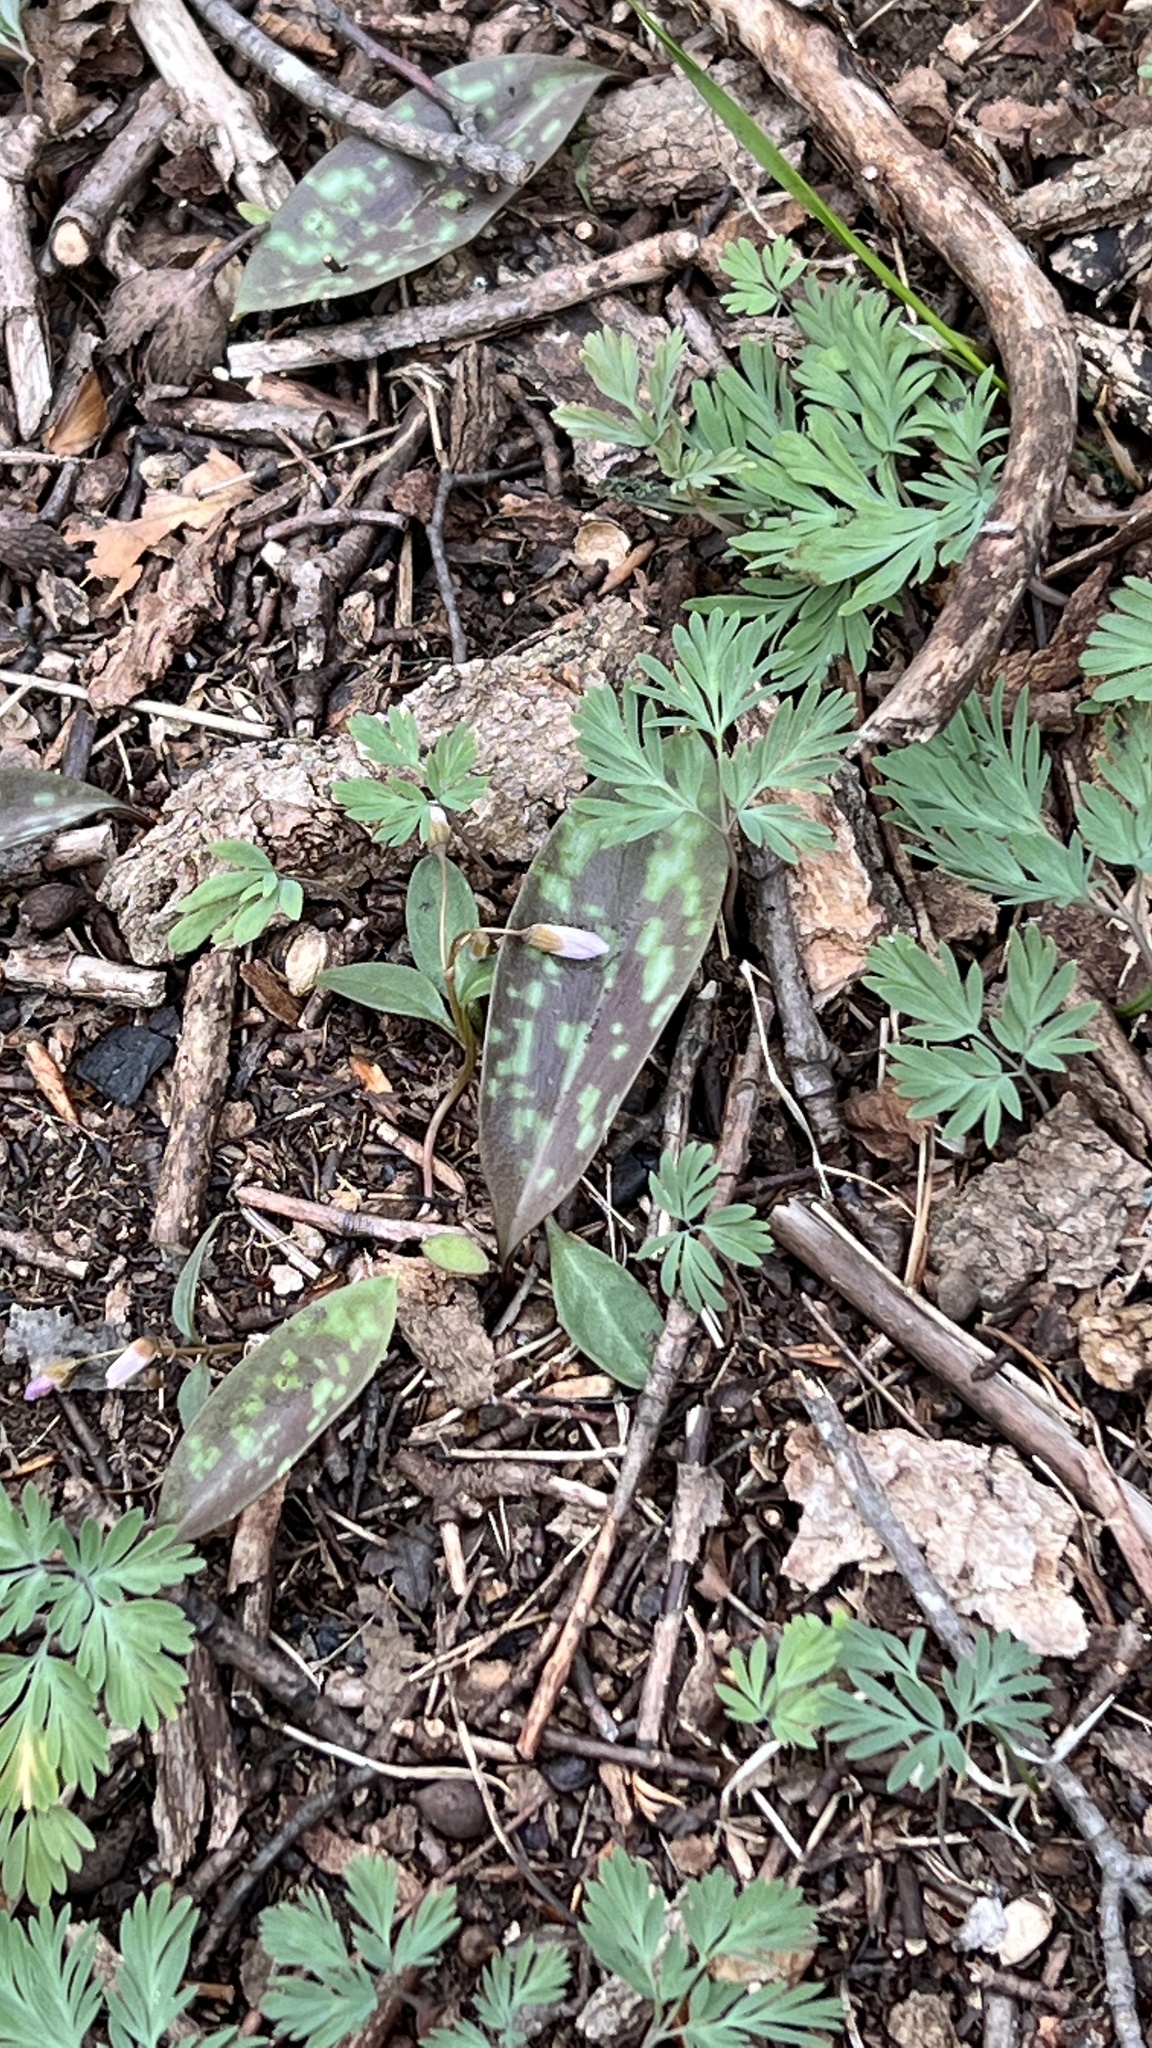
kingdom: Plantae
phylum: Tracheophyta
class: Liliopsida
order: Liliales
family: Liliaceae
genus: Erythronium
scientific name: Erythronium americanum
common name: Yellow adder's-tongue
